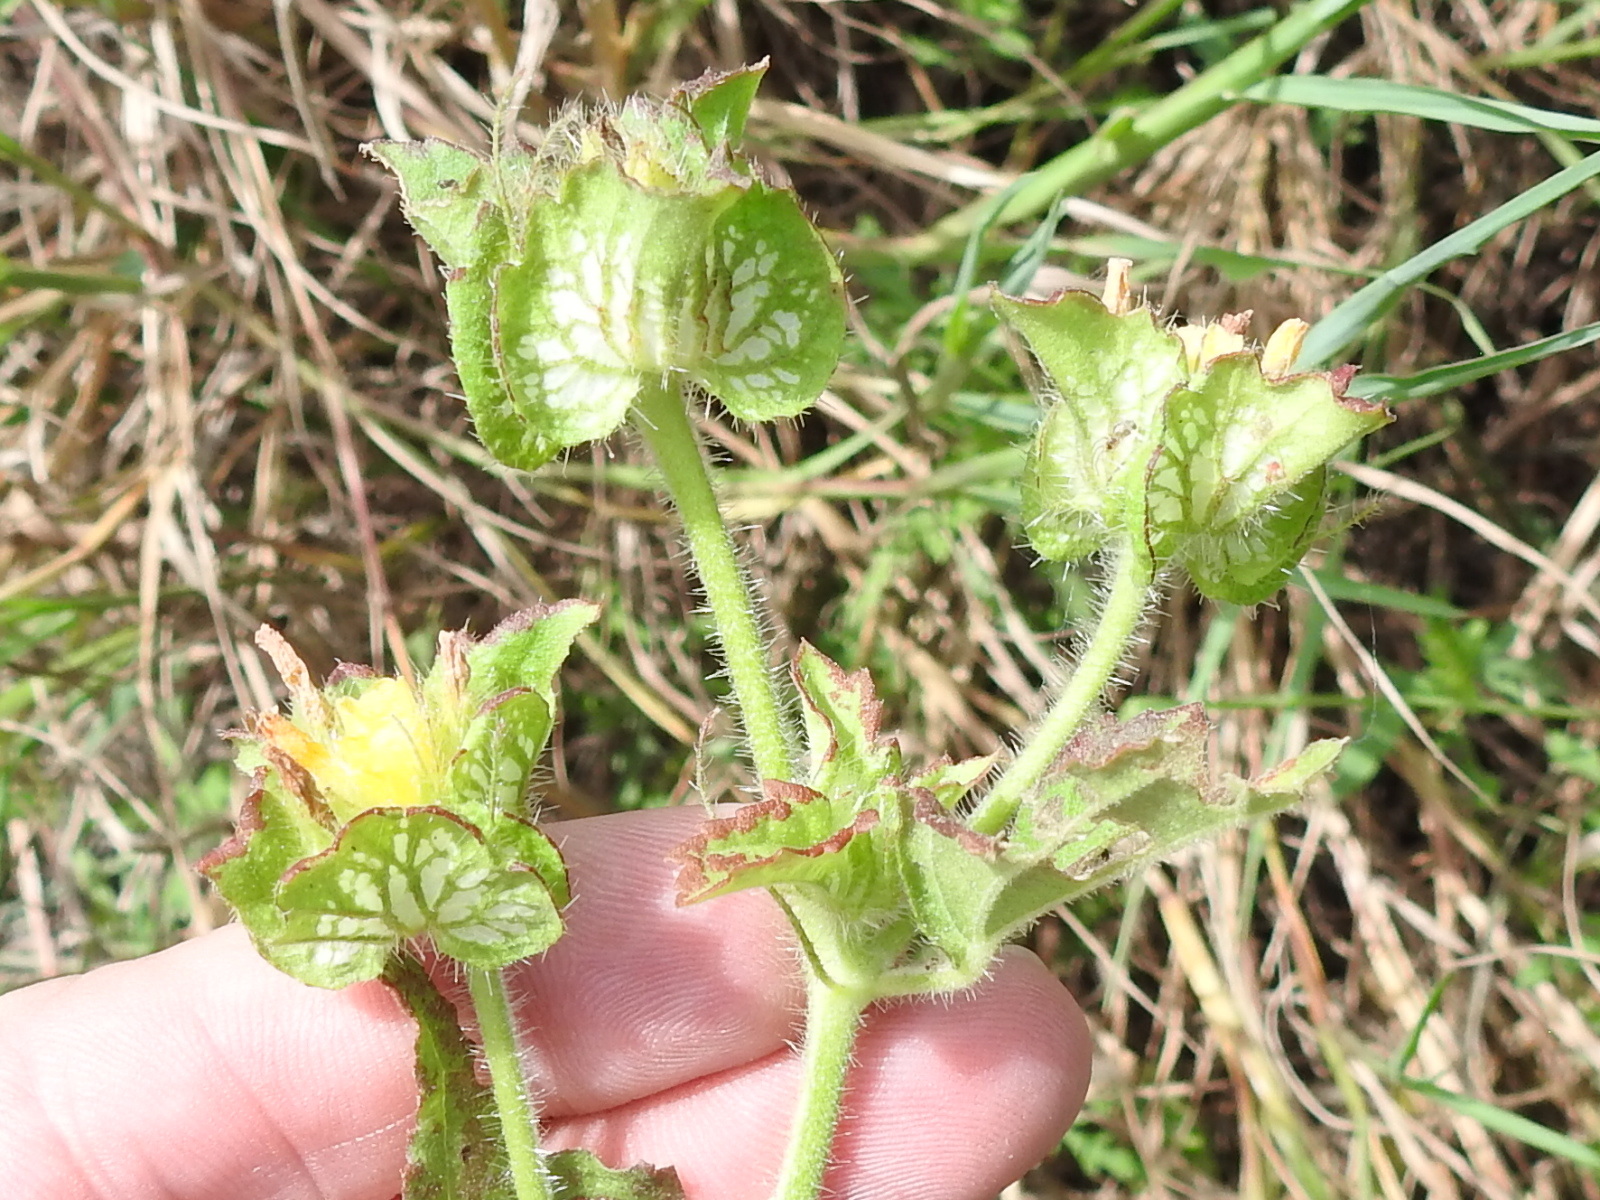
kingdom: Plantae
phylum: Tracheophyta
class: Magnoliopsida
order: Malvales
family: Malvaceae
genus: Malachra
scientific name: Malachra capitata
